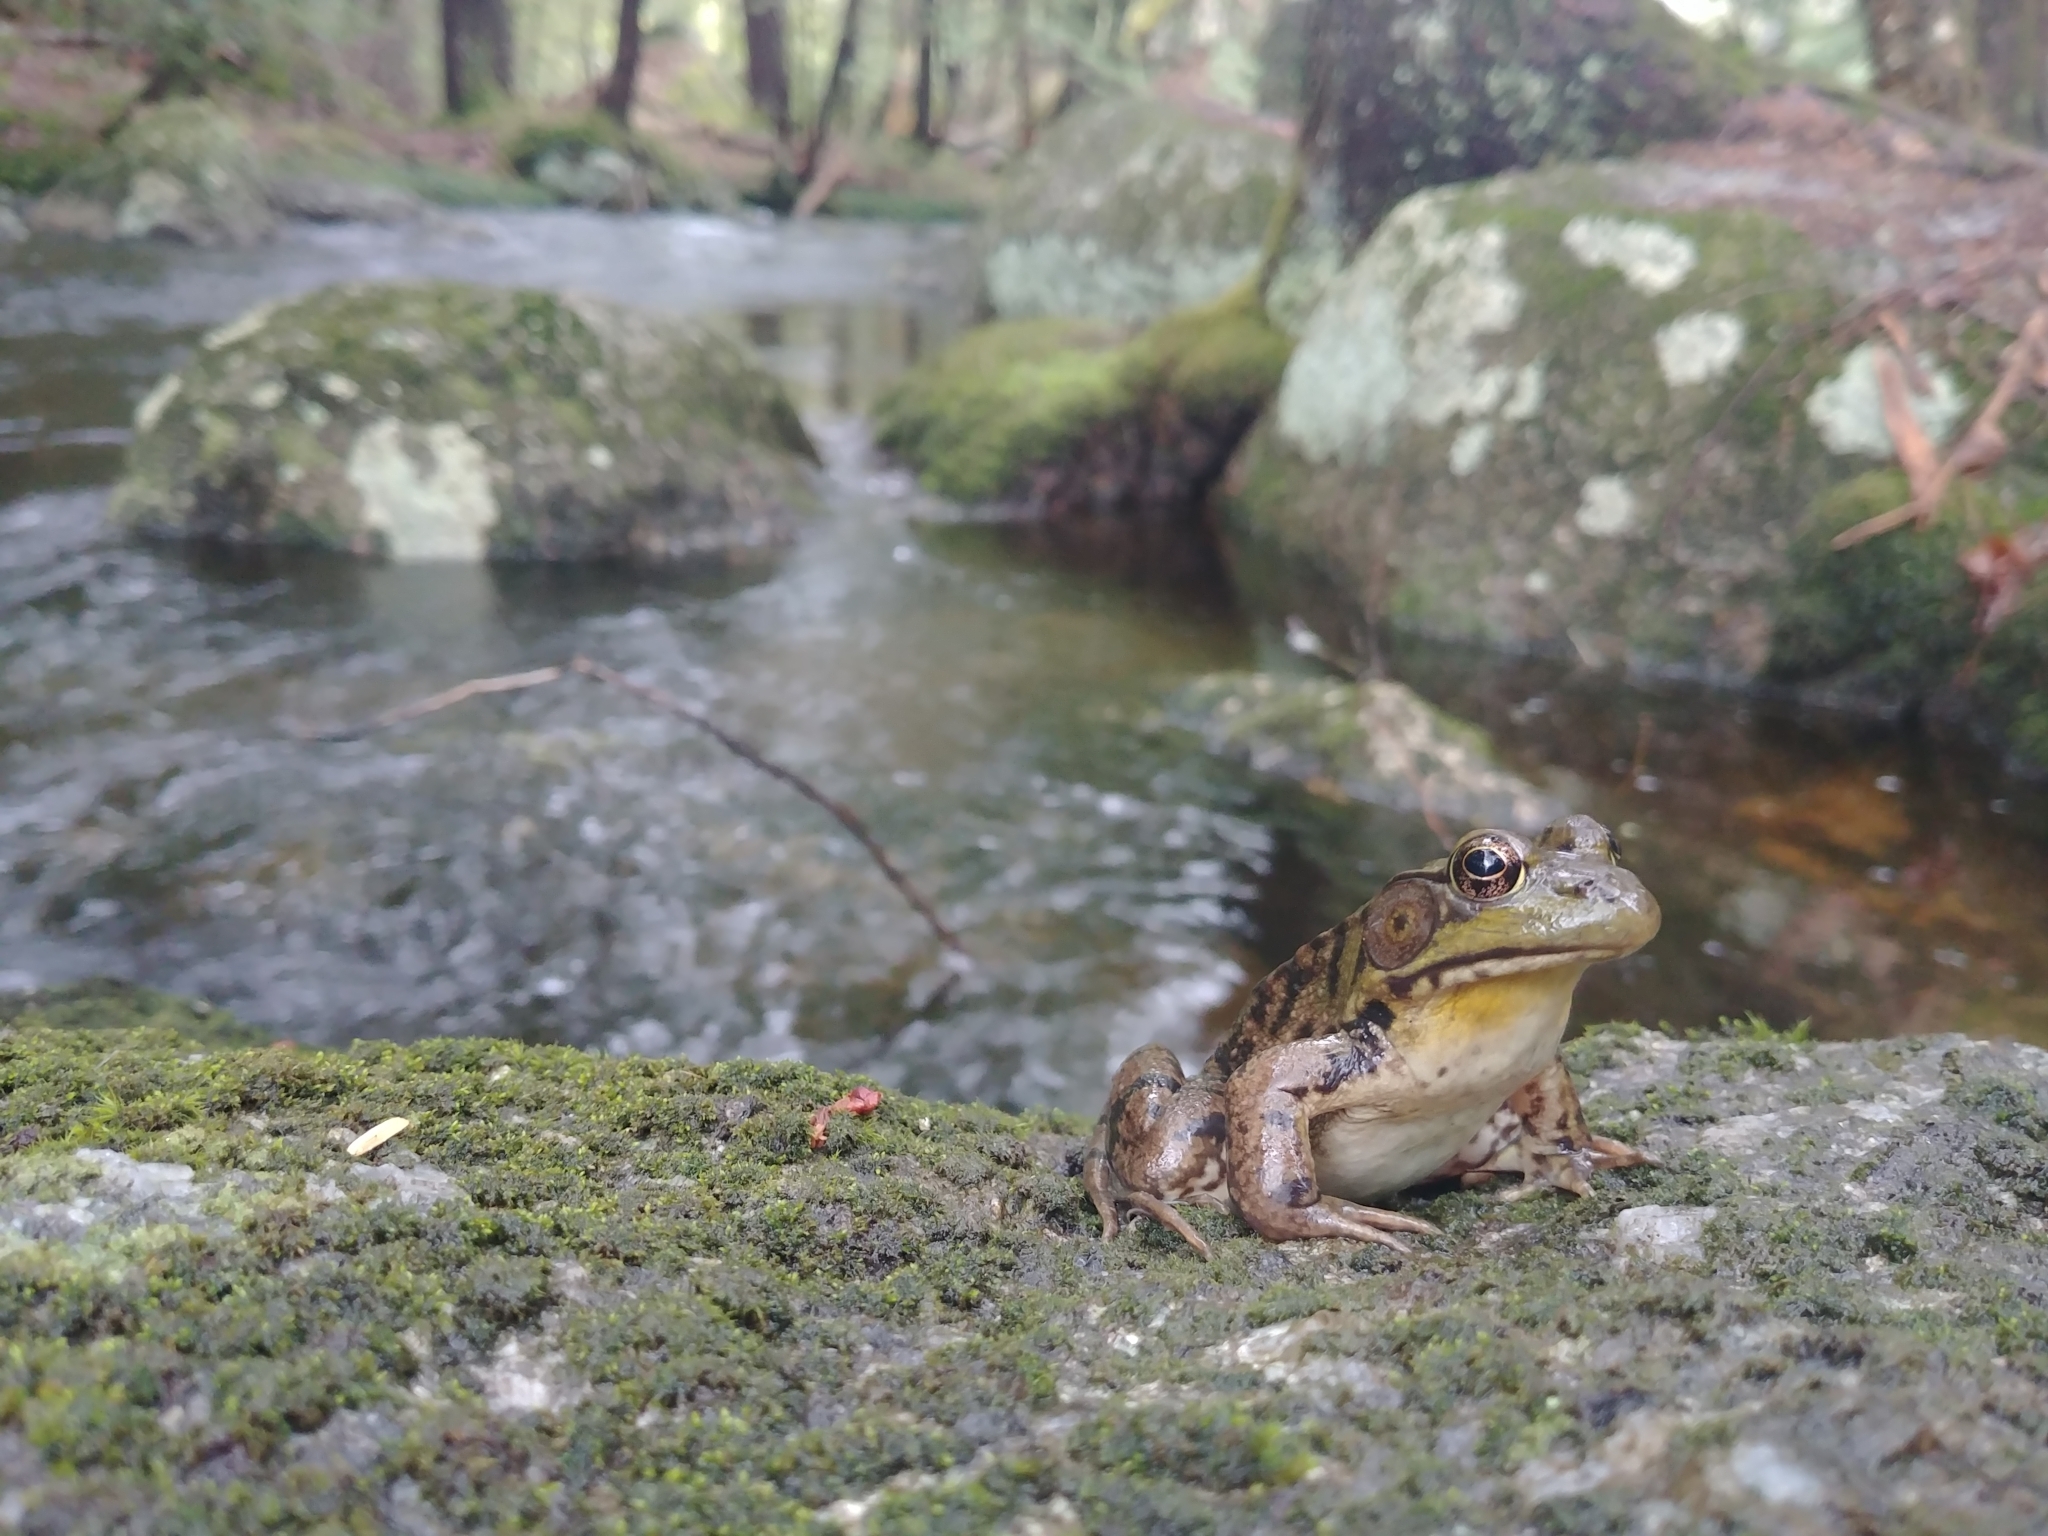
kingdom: Animalia
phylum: Chordata
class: Amphibia
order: Anura
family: Ranidae
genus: Lithobates
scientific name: Lithobates clamitans
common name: Green frog
